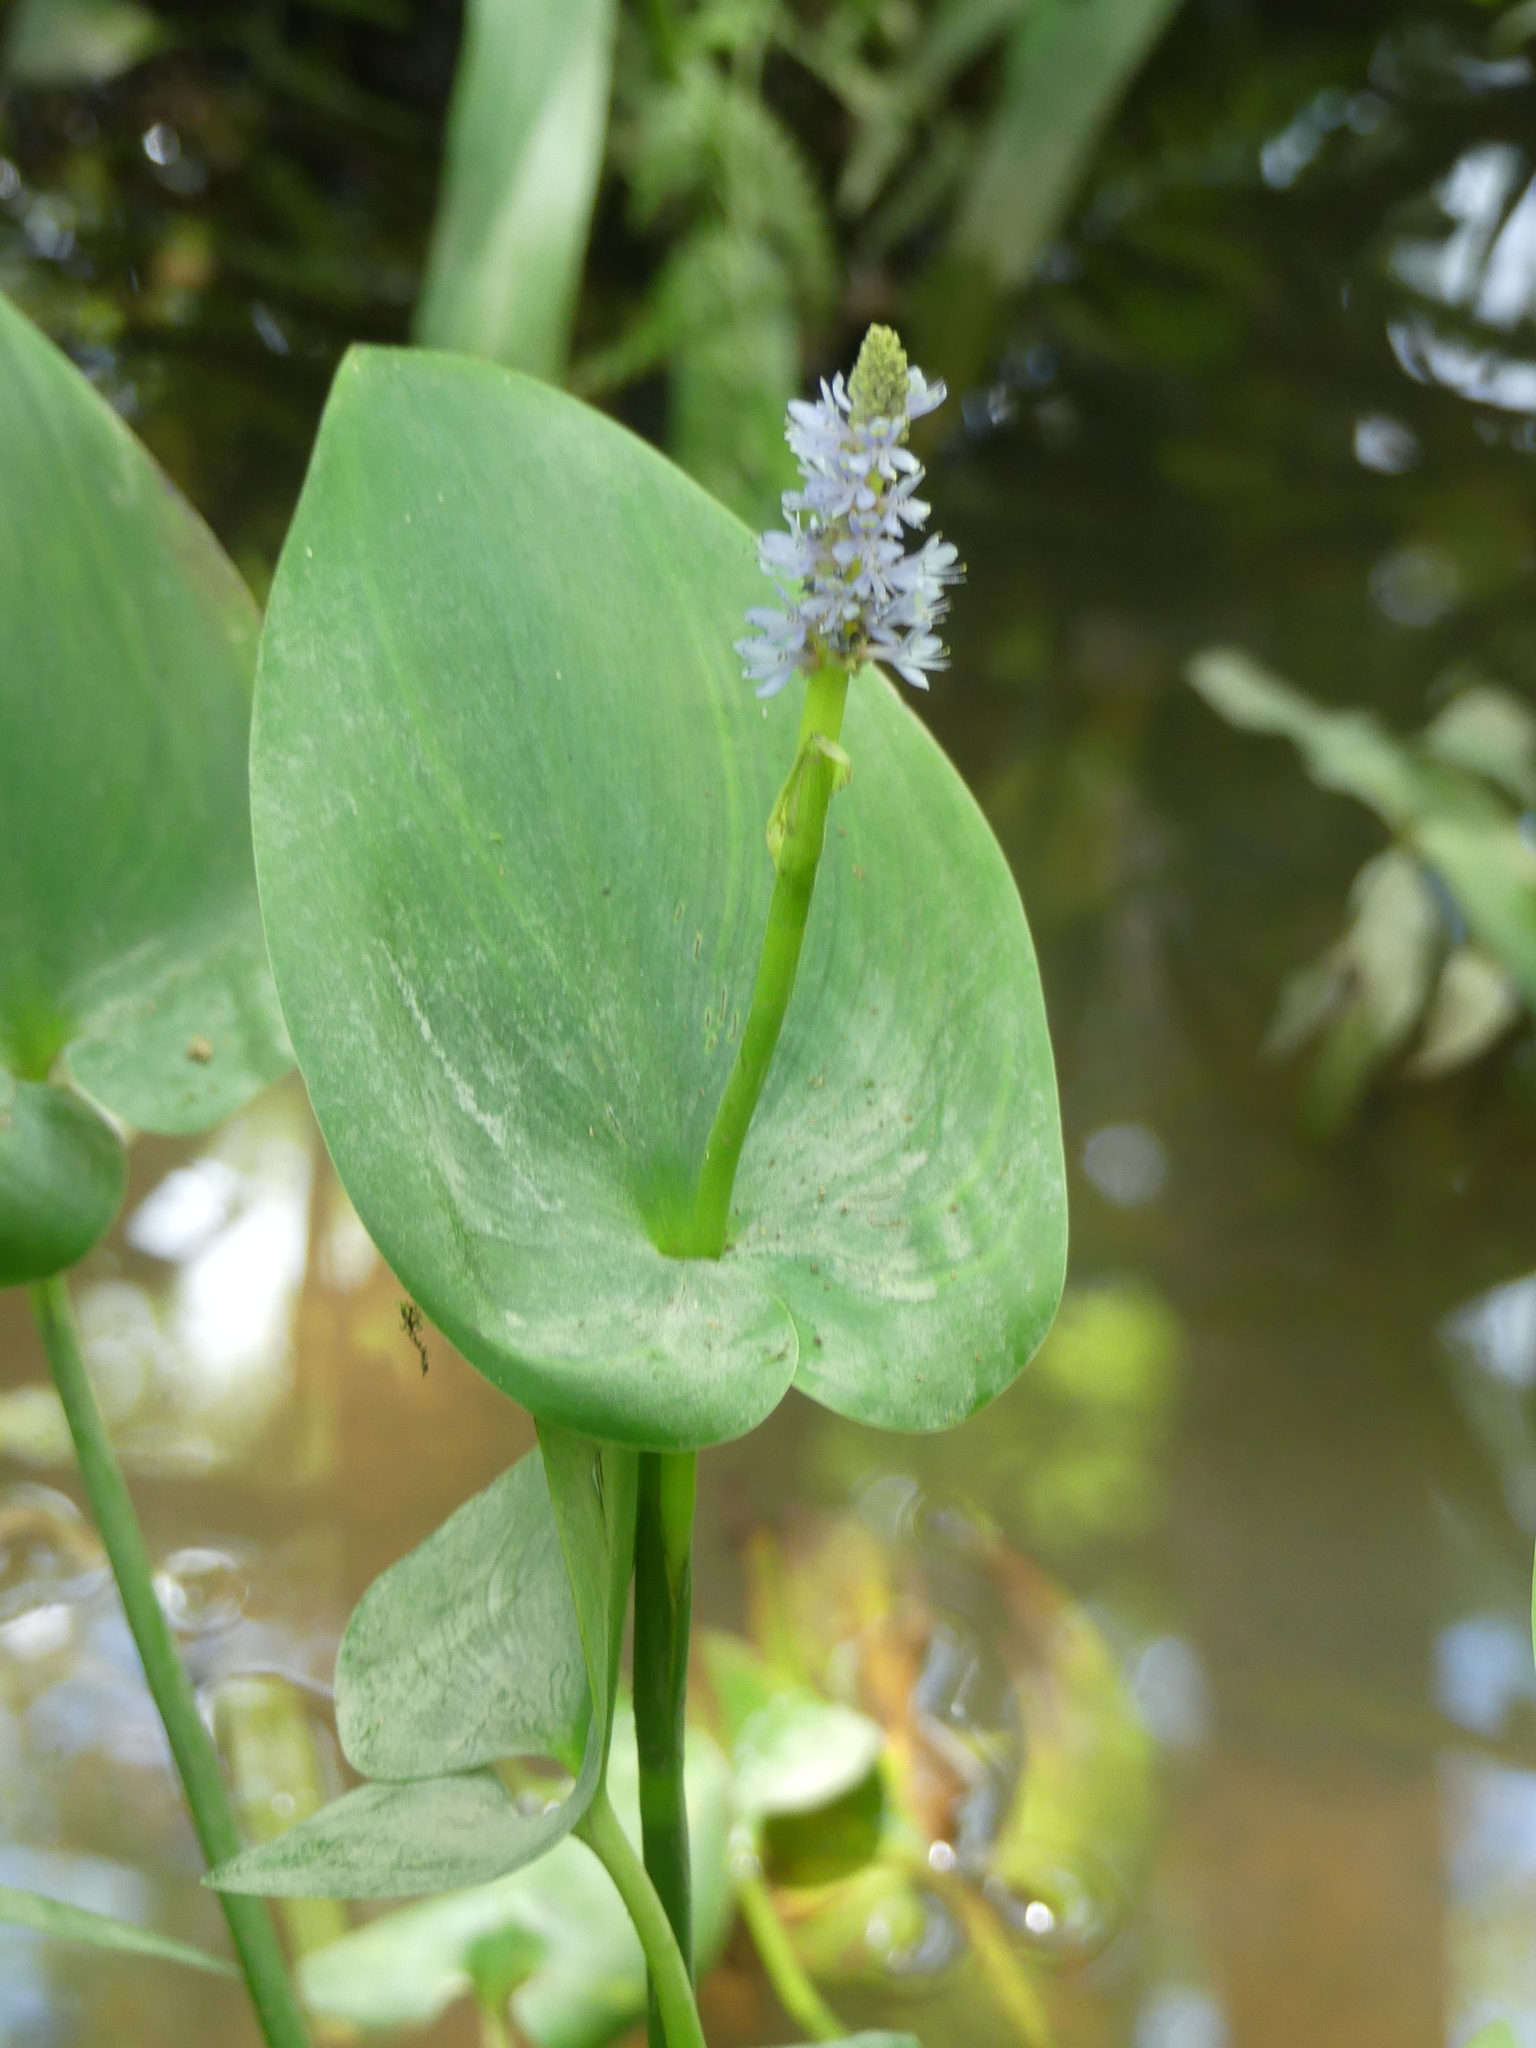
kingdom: Plantae
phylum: Tracheophyta
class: Liliopsida
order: Commelinales
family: Pontederiaceae
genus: Pontederia
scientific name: Pontederia cordata
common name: Pickerelweed
